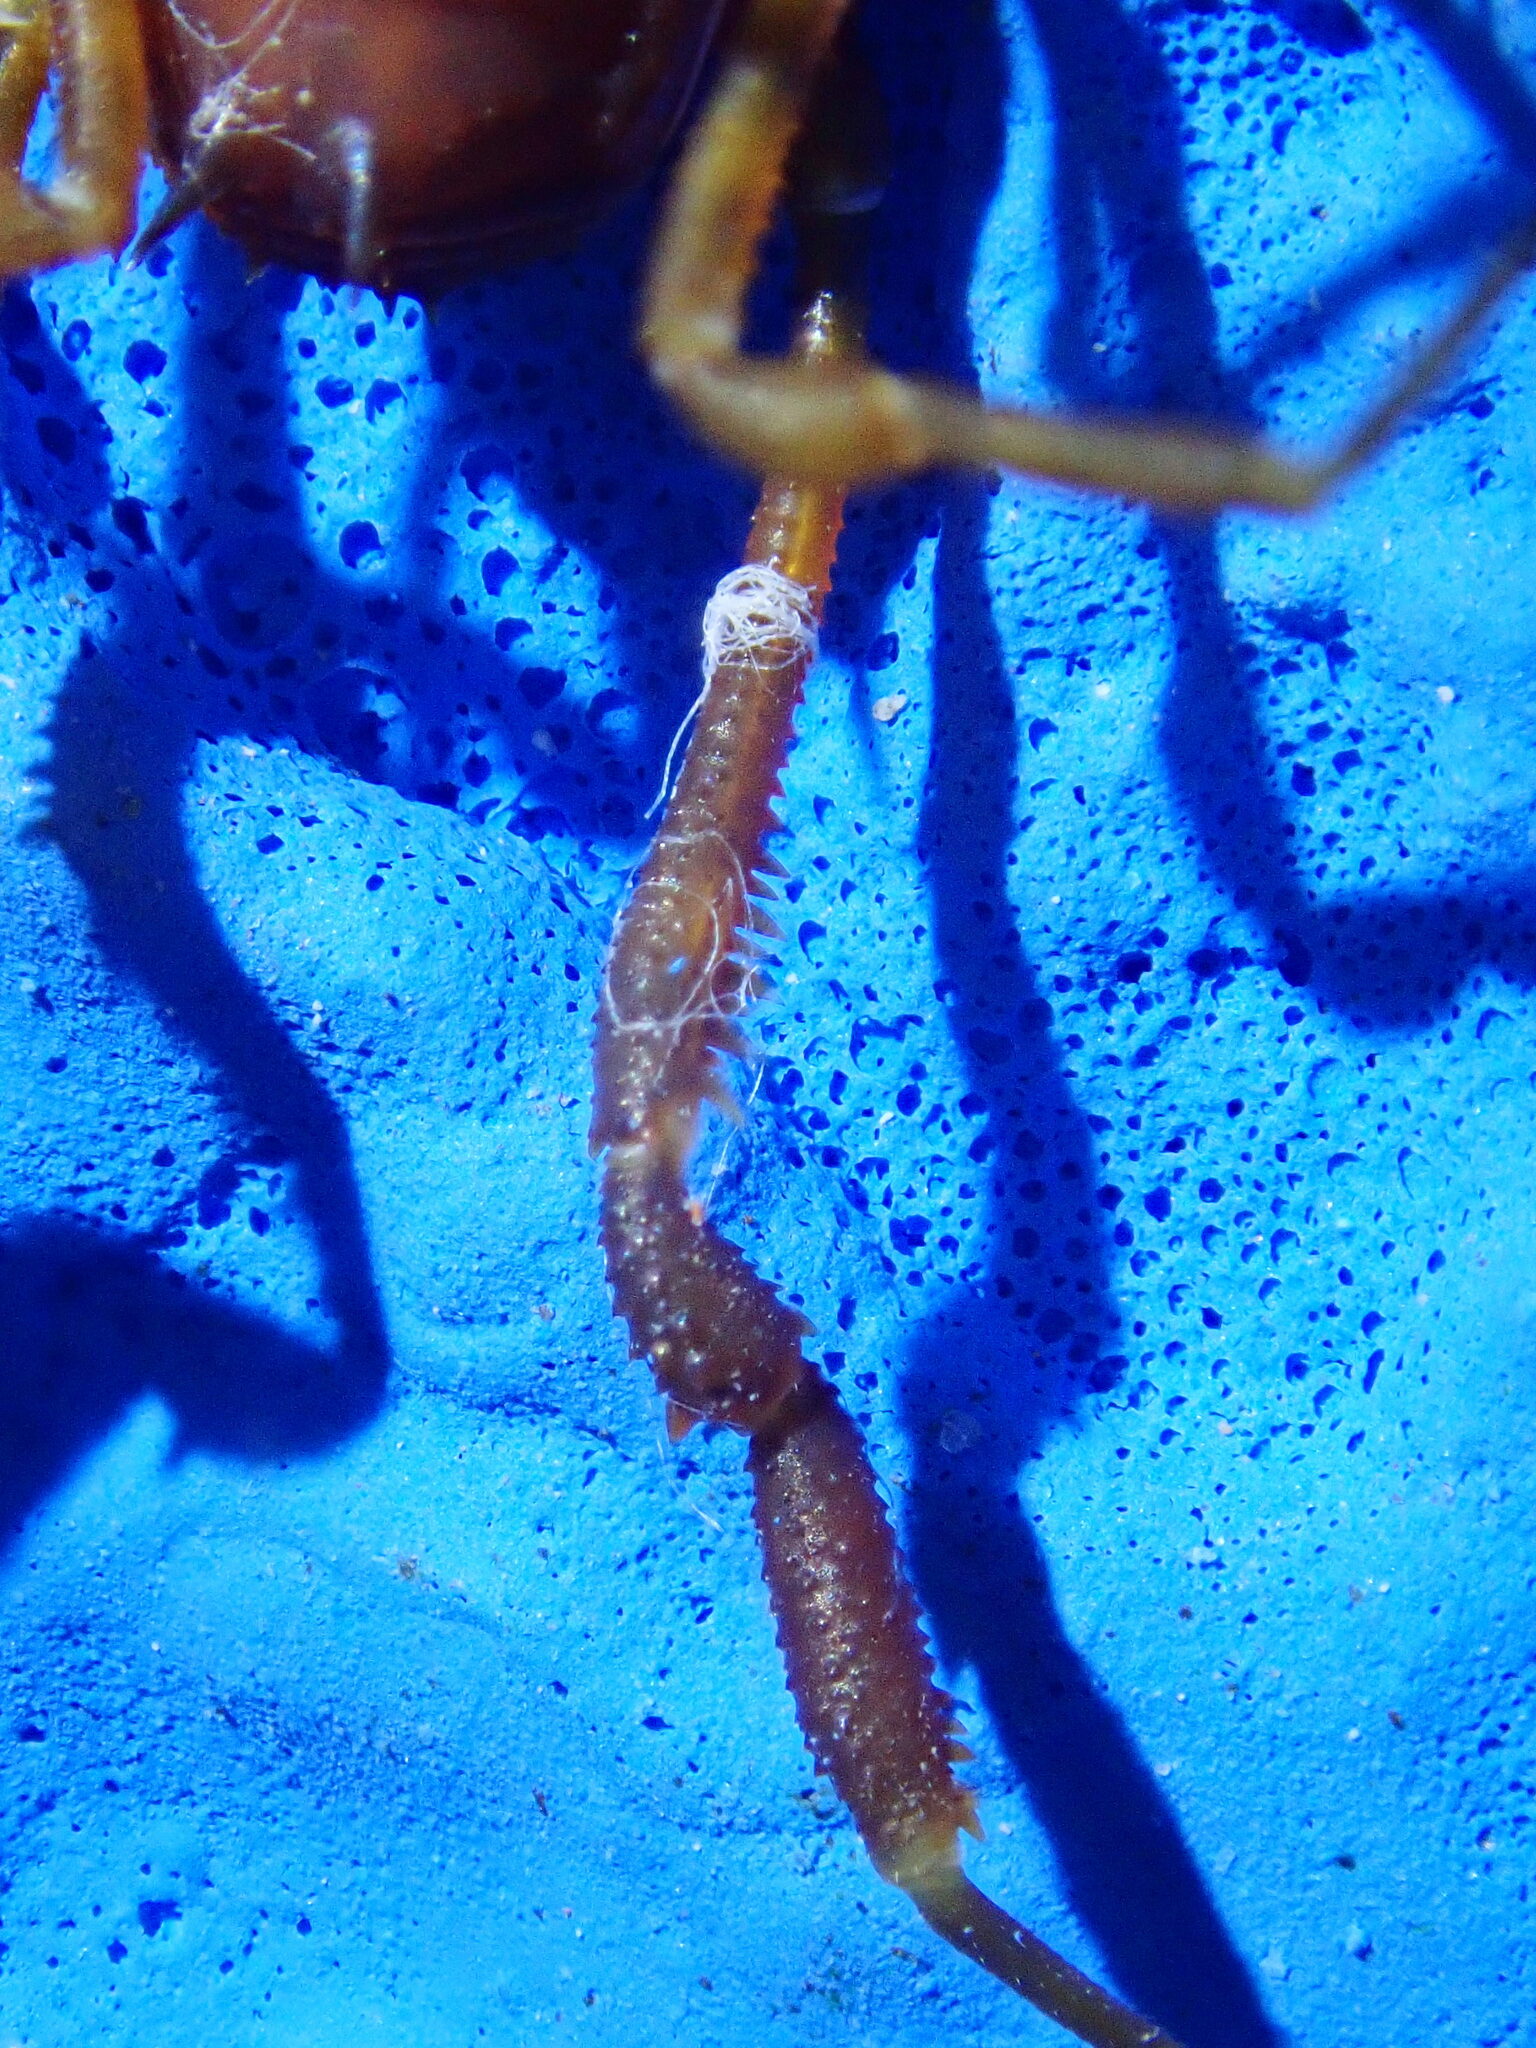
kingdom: Animalia
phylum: Arthropoda
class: Arachnida
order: Opiliones
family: Stygnidae
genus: Stygnus
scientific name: Stygnus polyacanthus
